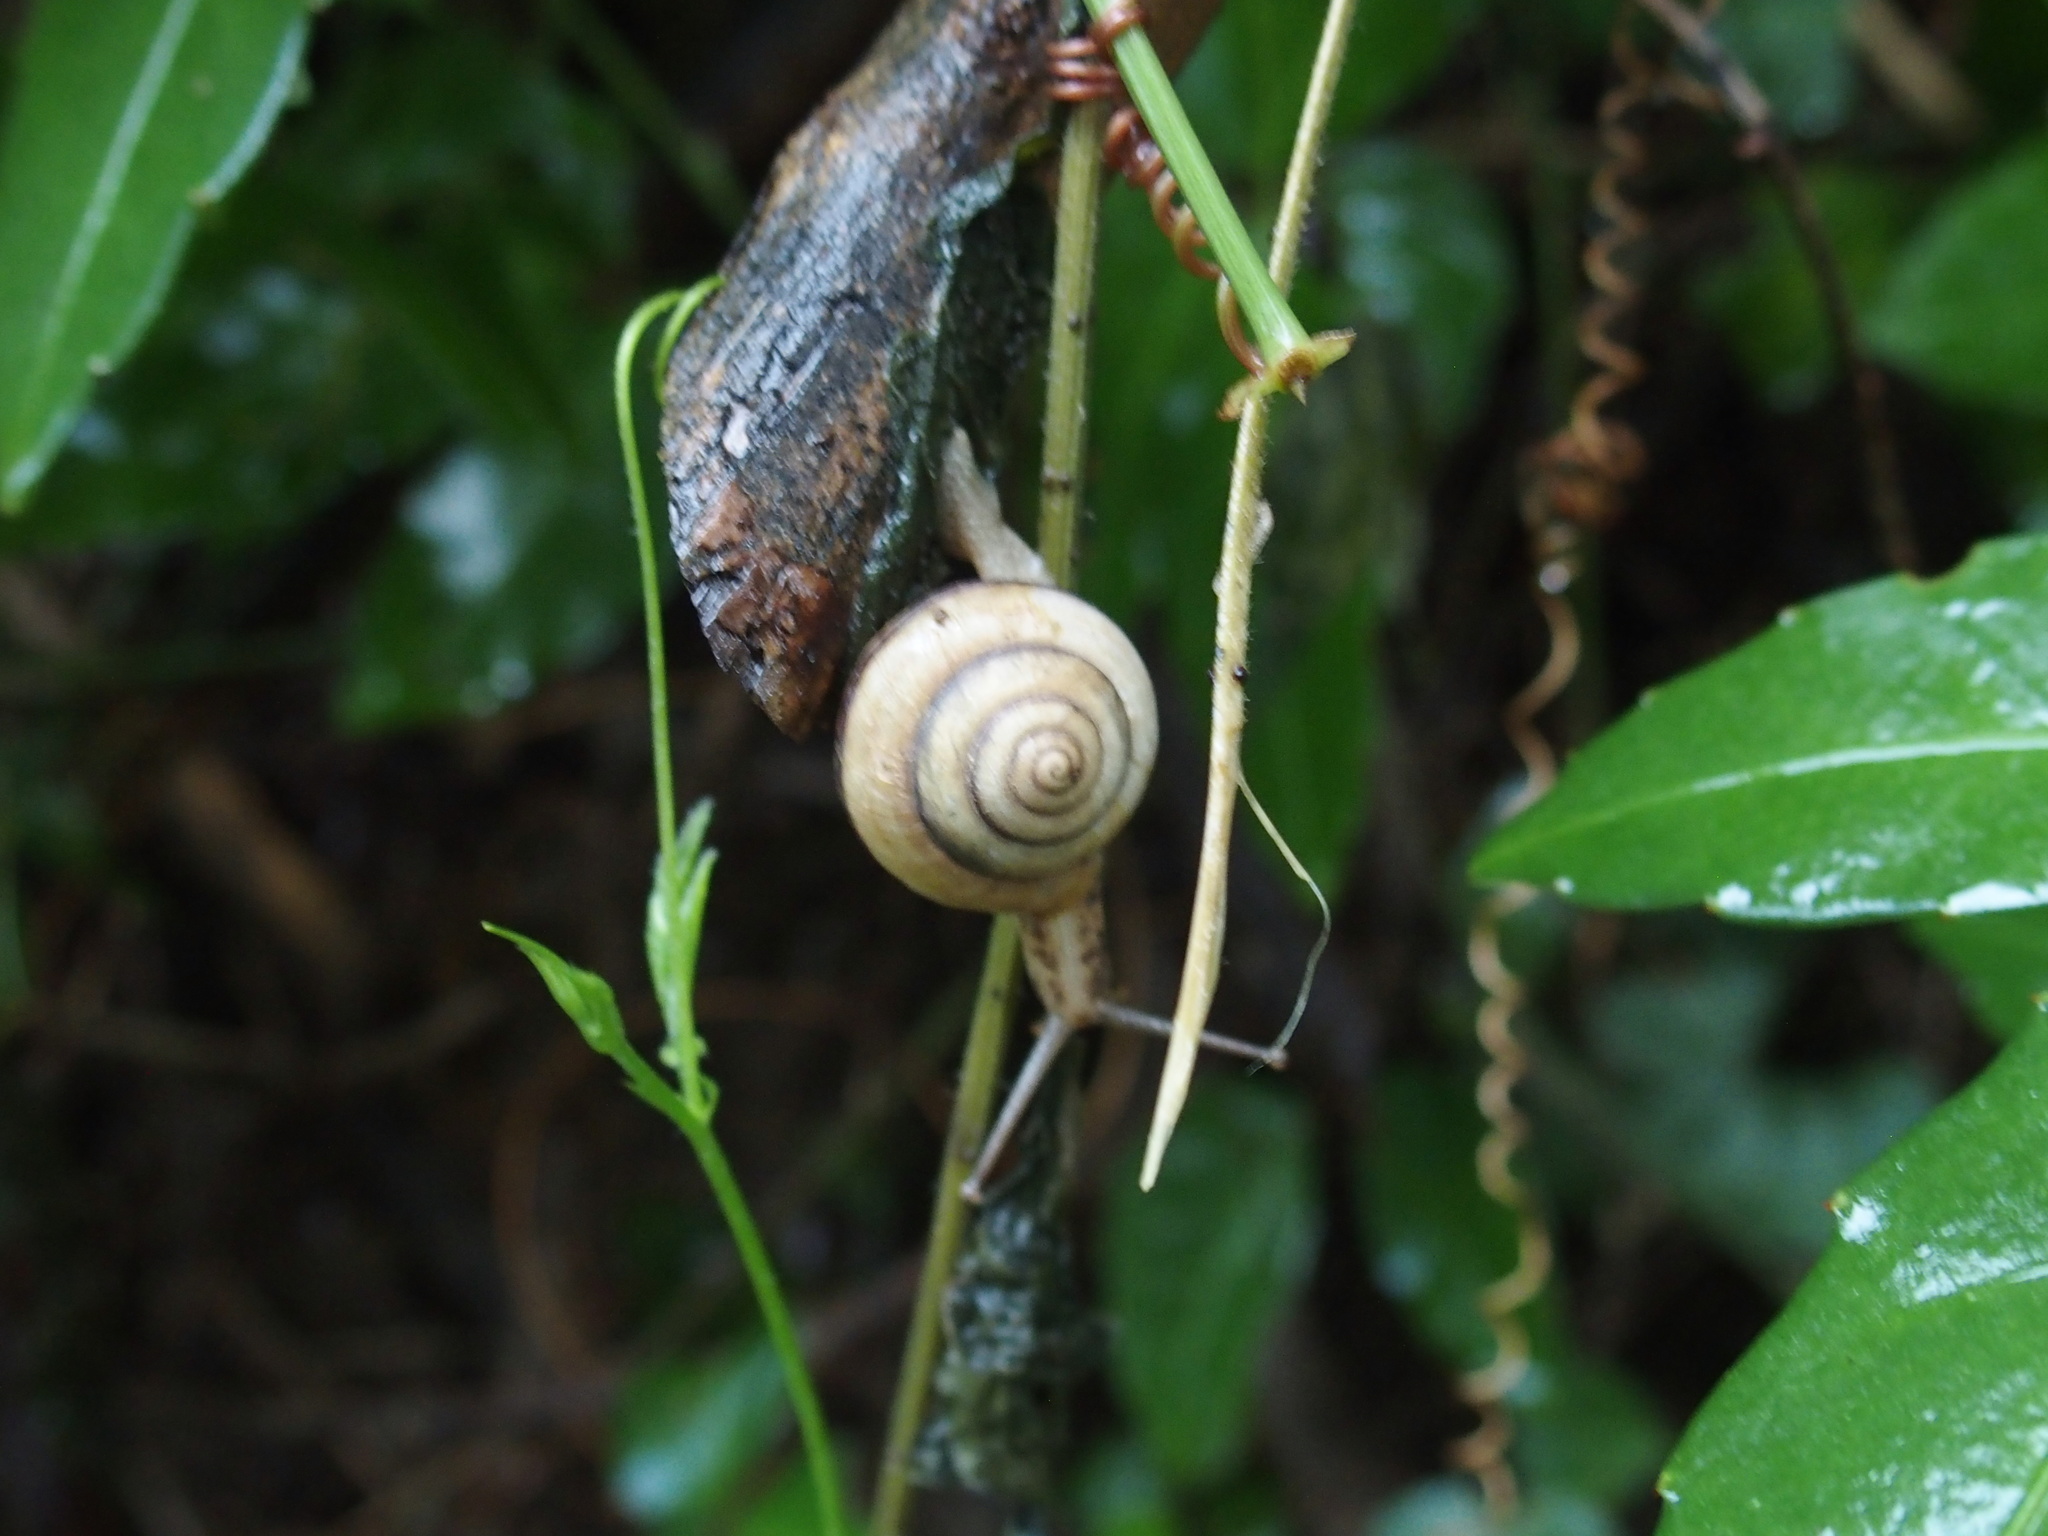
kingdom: Animalia
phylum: Mollusca
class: Gastropoda
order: Stylommatophora
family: Camaenidae
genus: Pancala
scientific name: Pancala batanica
